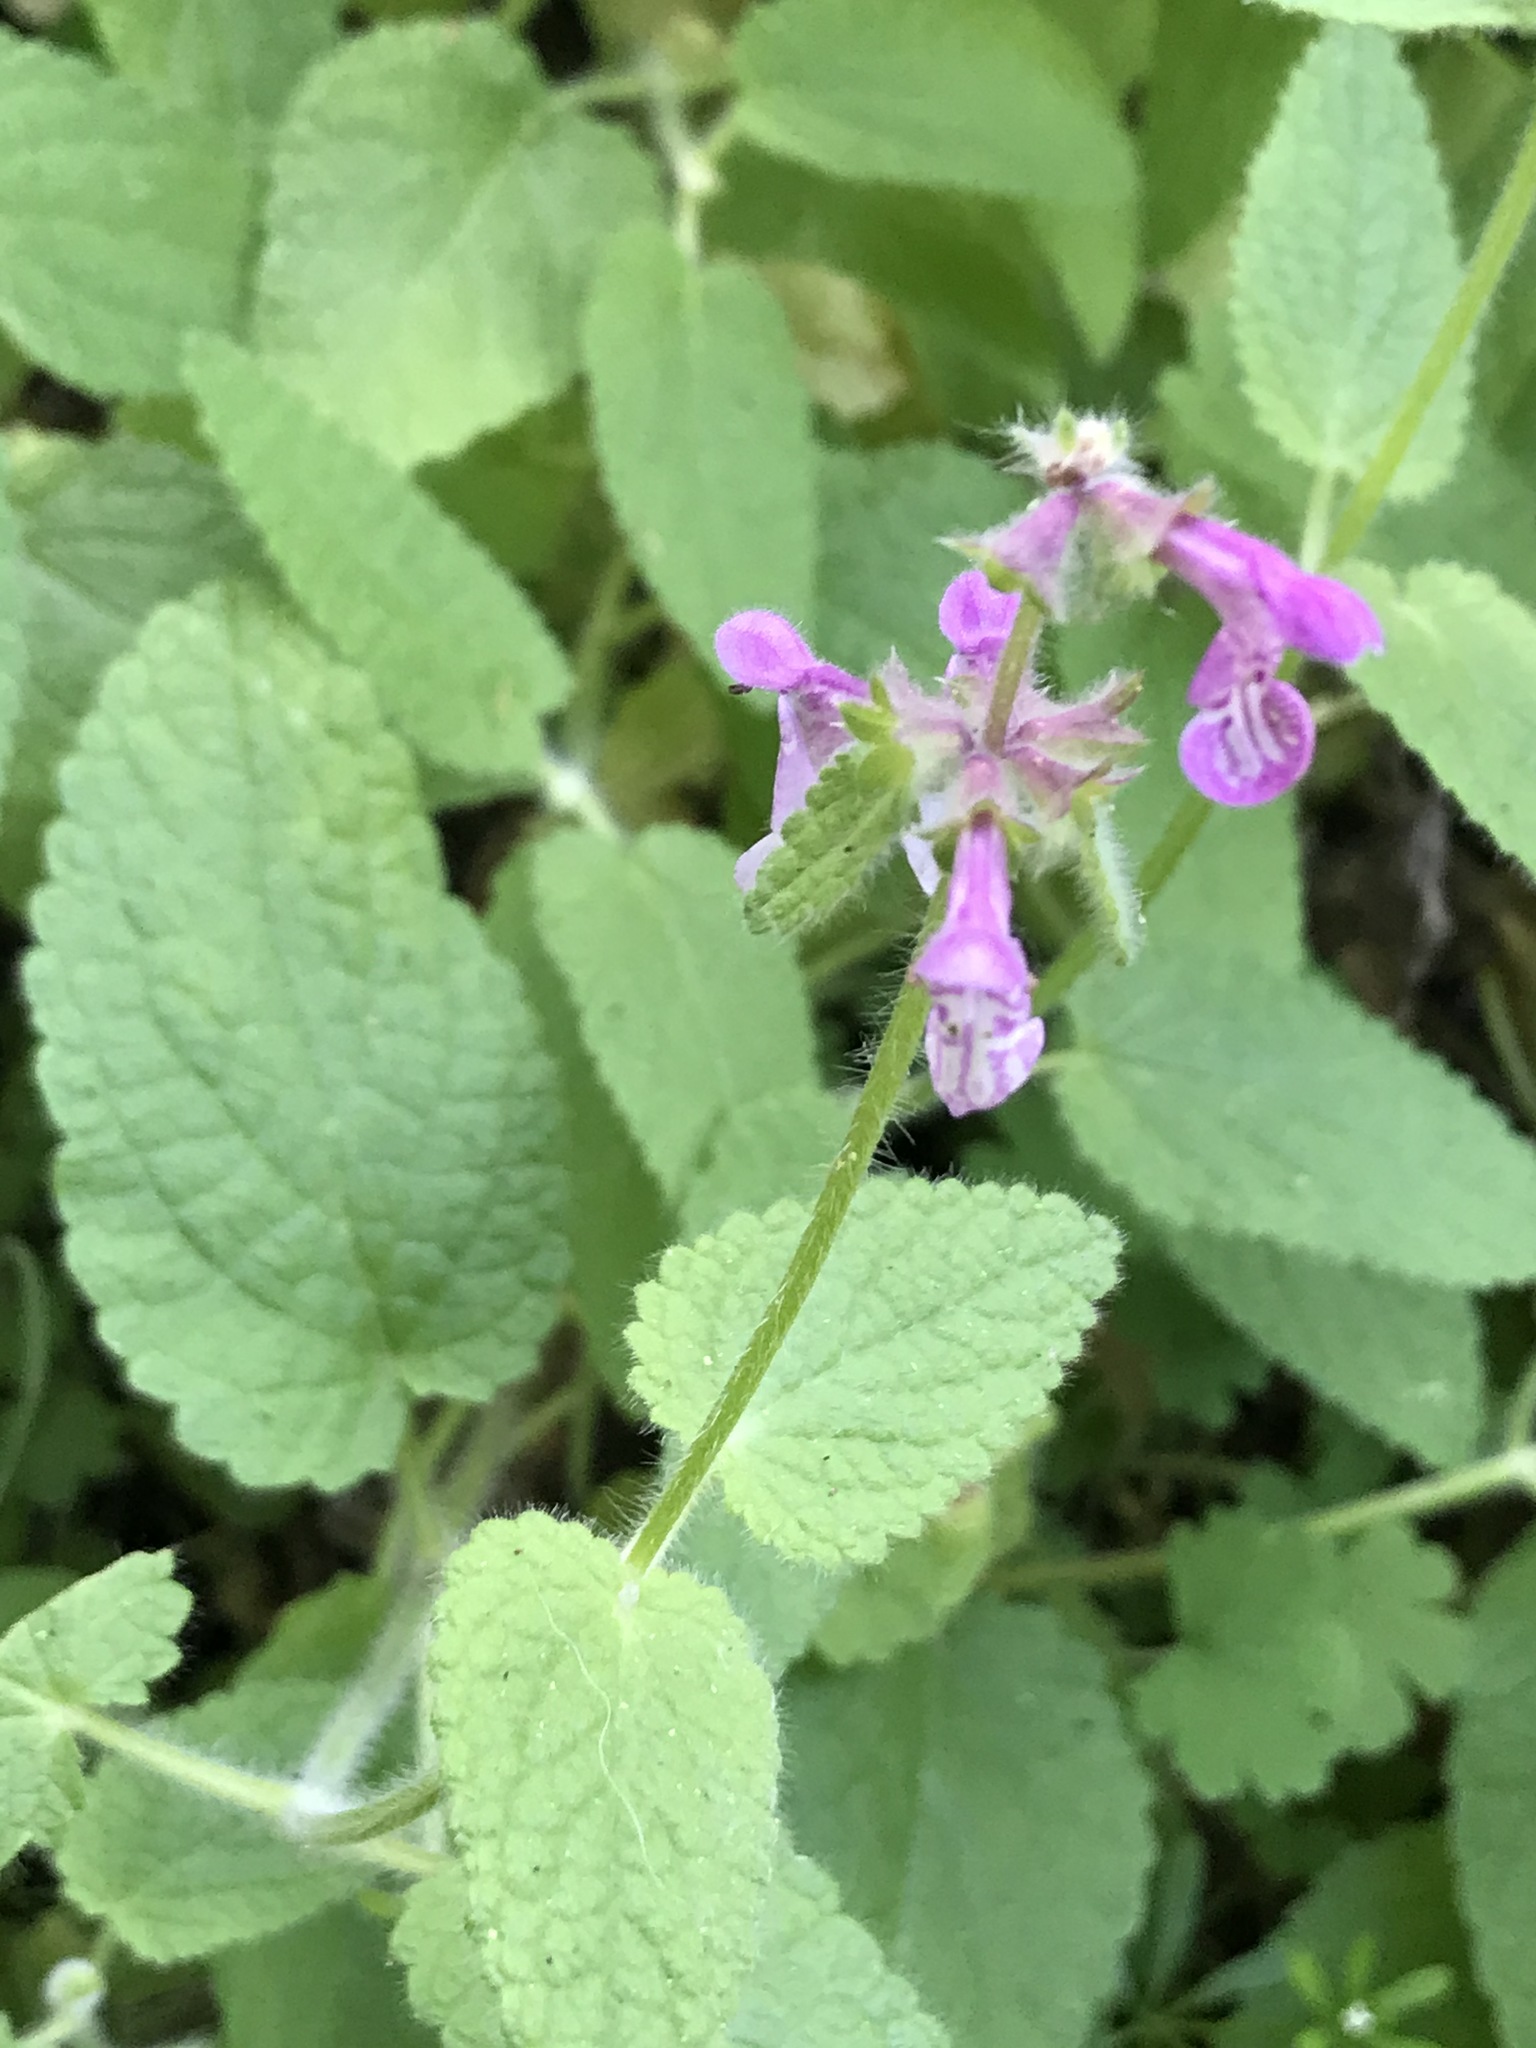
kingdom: Plantae
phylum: Tracheophyta
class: Magnoliopsida
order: Lamiales
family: Lamiaceae
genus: Stachys
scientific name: Stachys bullata
